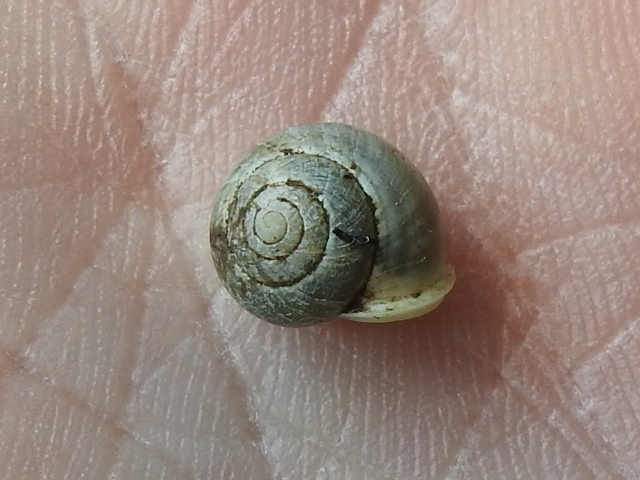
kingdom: Animalia
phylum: Mollusca
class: Gastropoda
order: Cycloneritida
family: Helicinidae
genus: Helicina
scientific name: Helicina orbiculata
